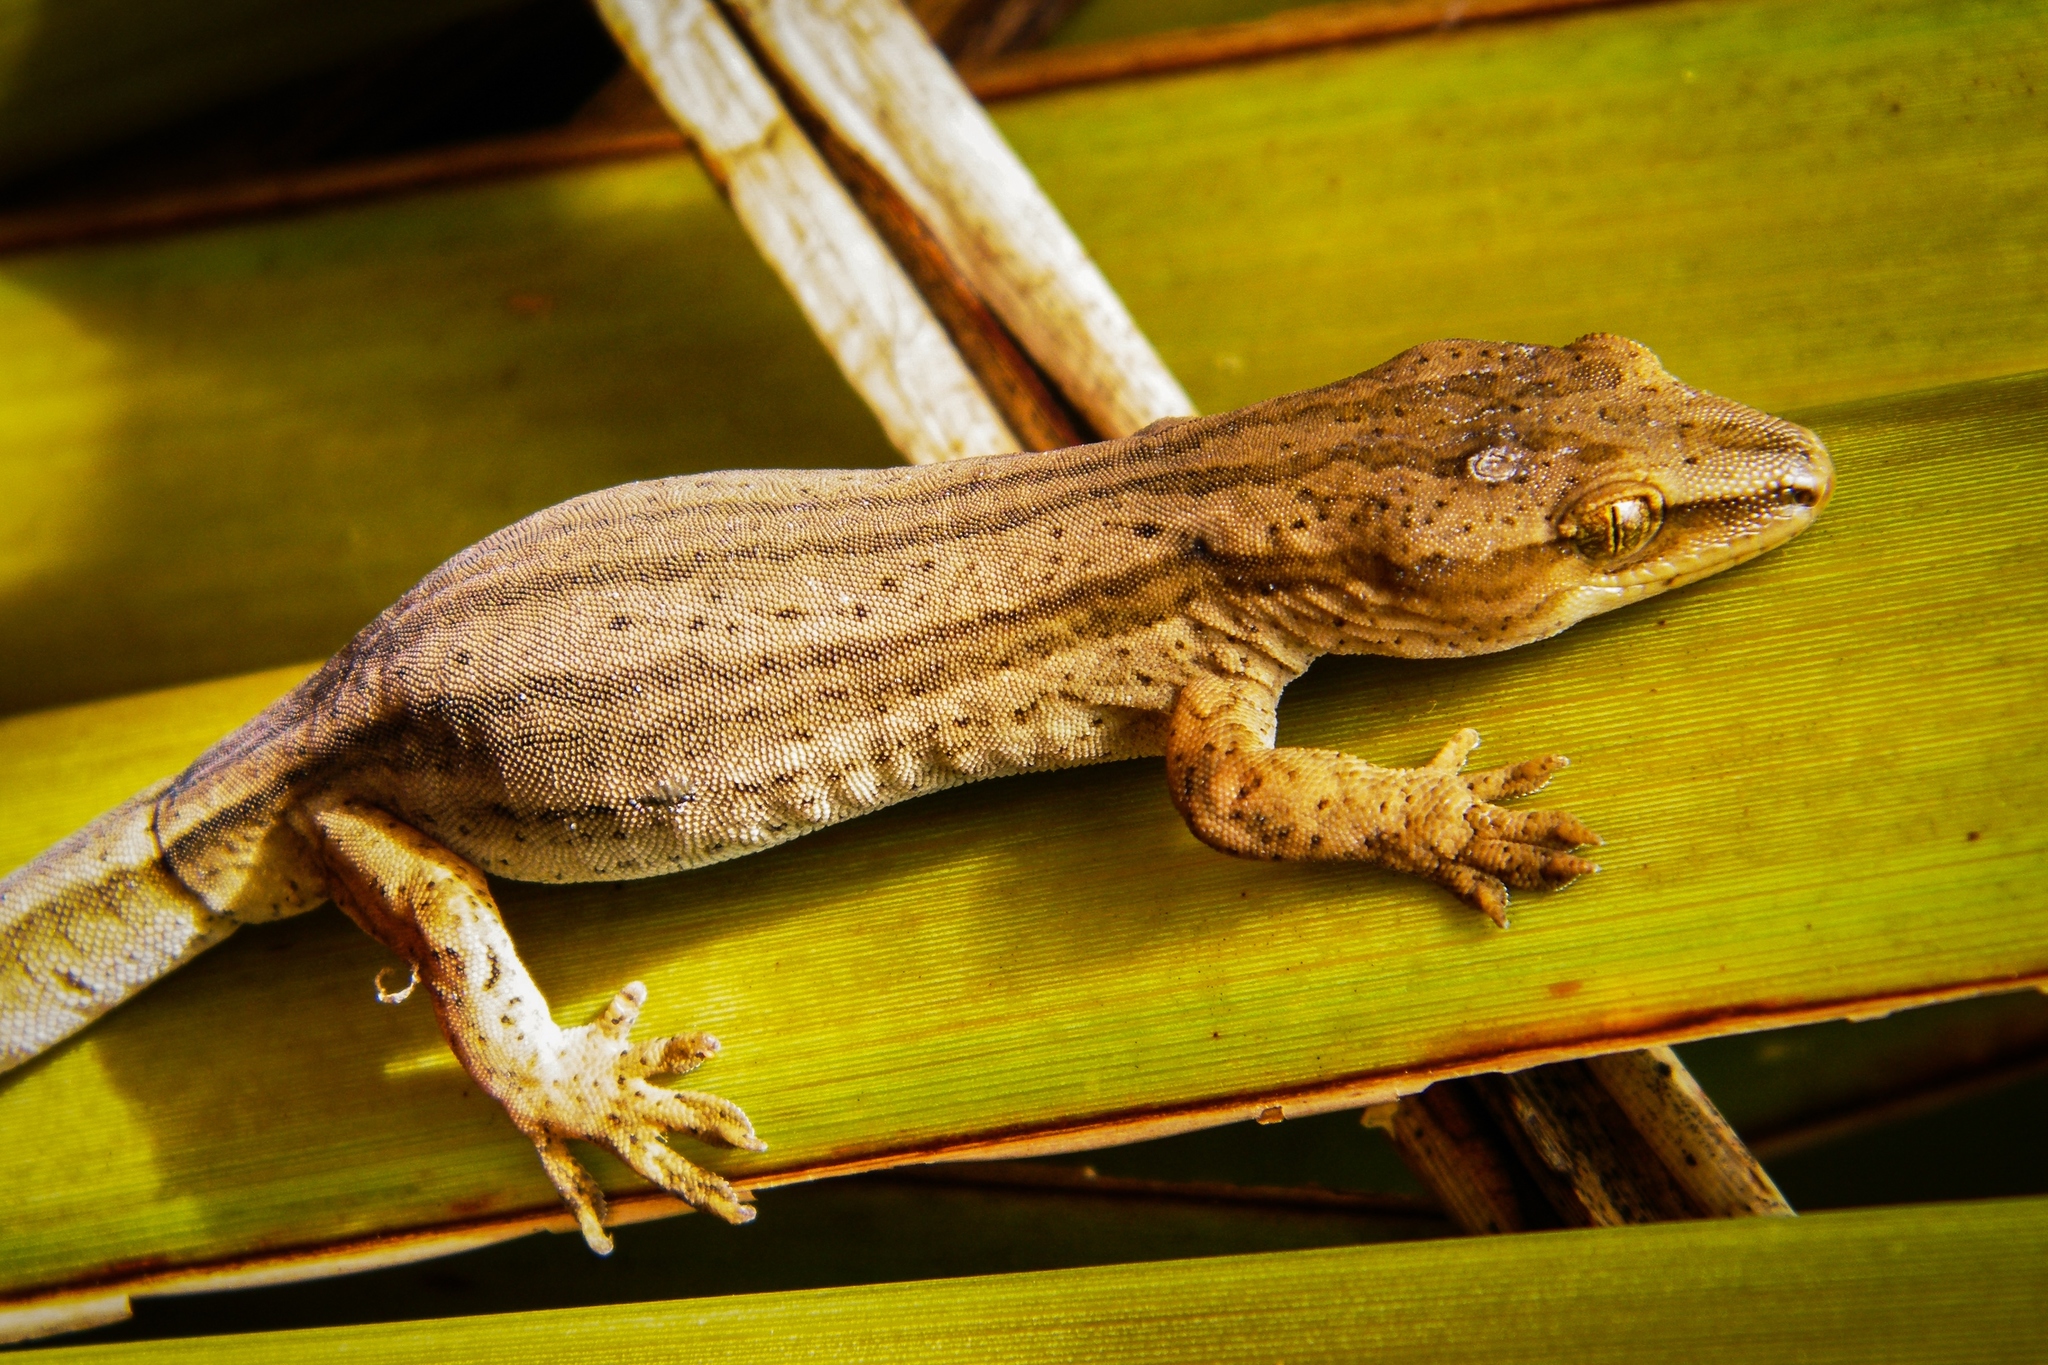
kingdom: Animalia
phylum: Chordata
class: Squamata
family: Diplodactylidae
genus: Woodworthia
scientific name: Woodworthia chrysosiretica
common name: Gold-striped gecko
